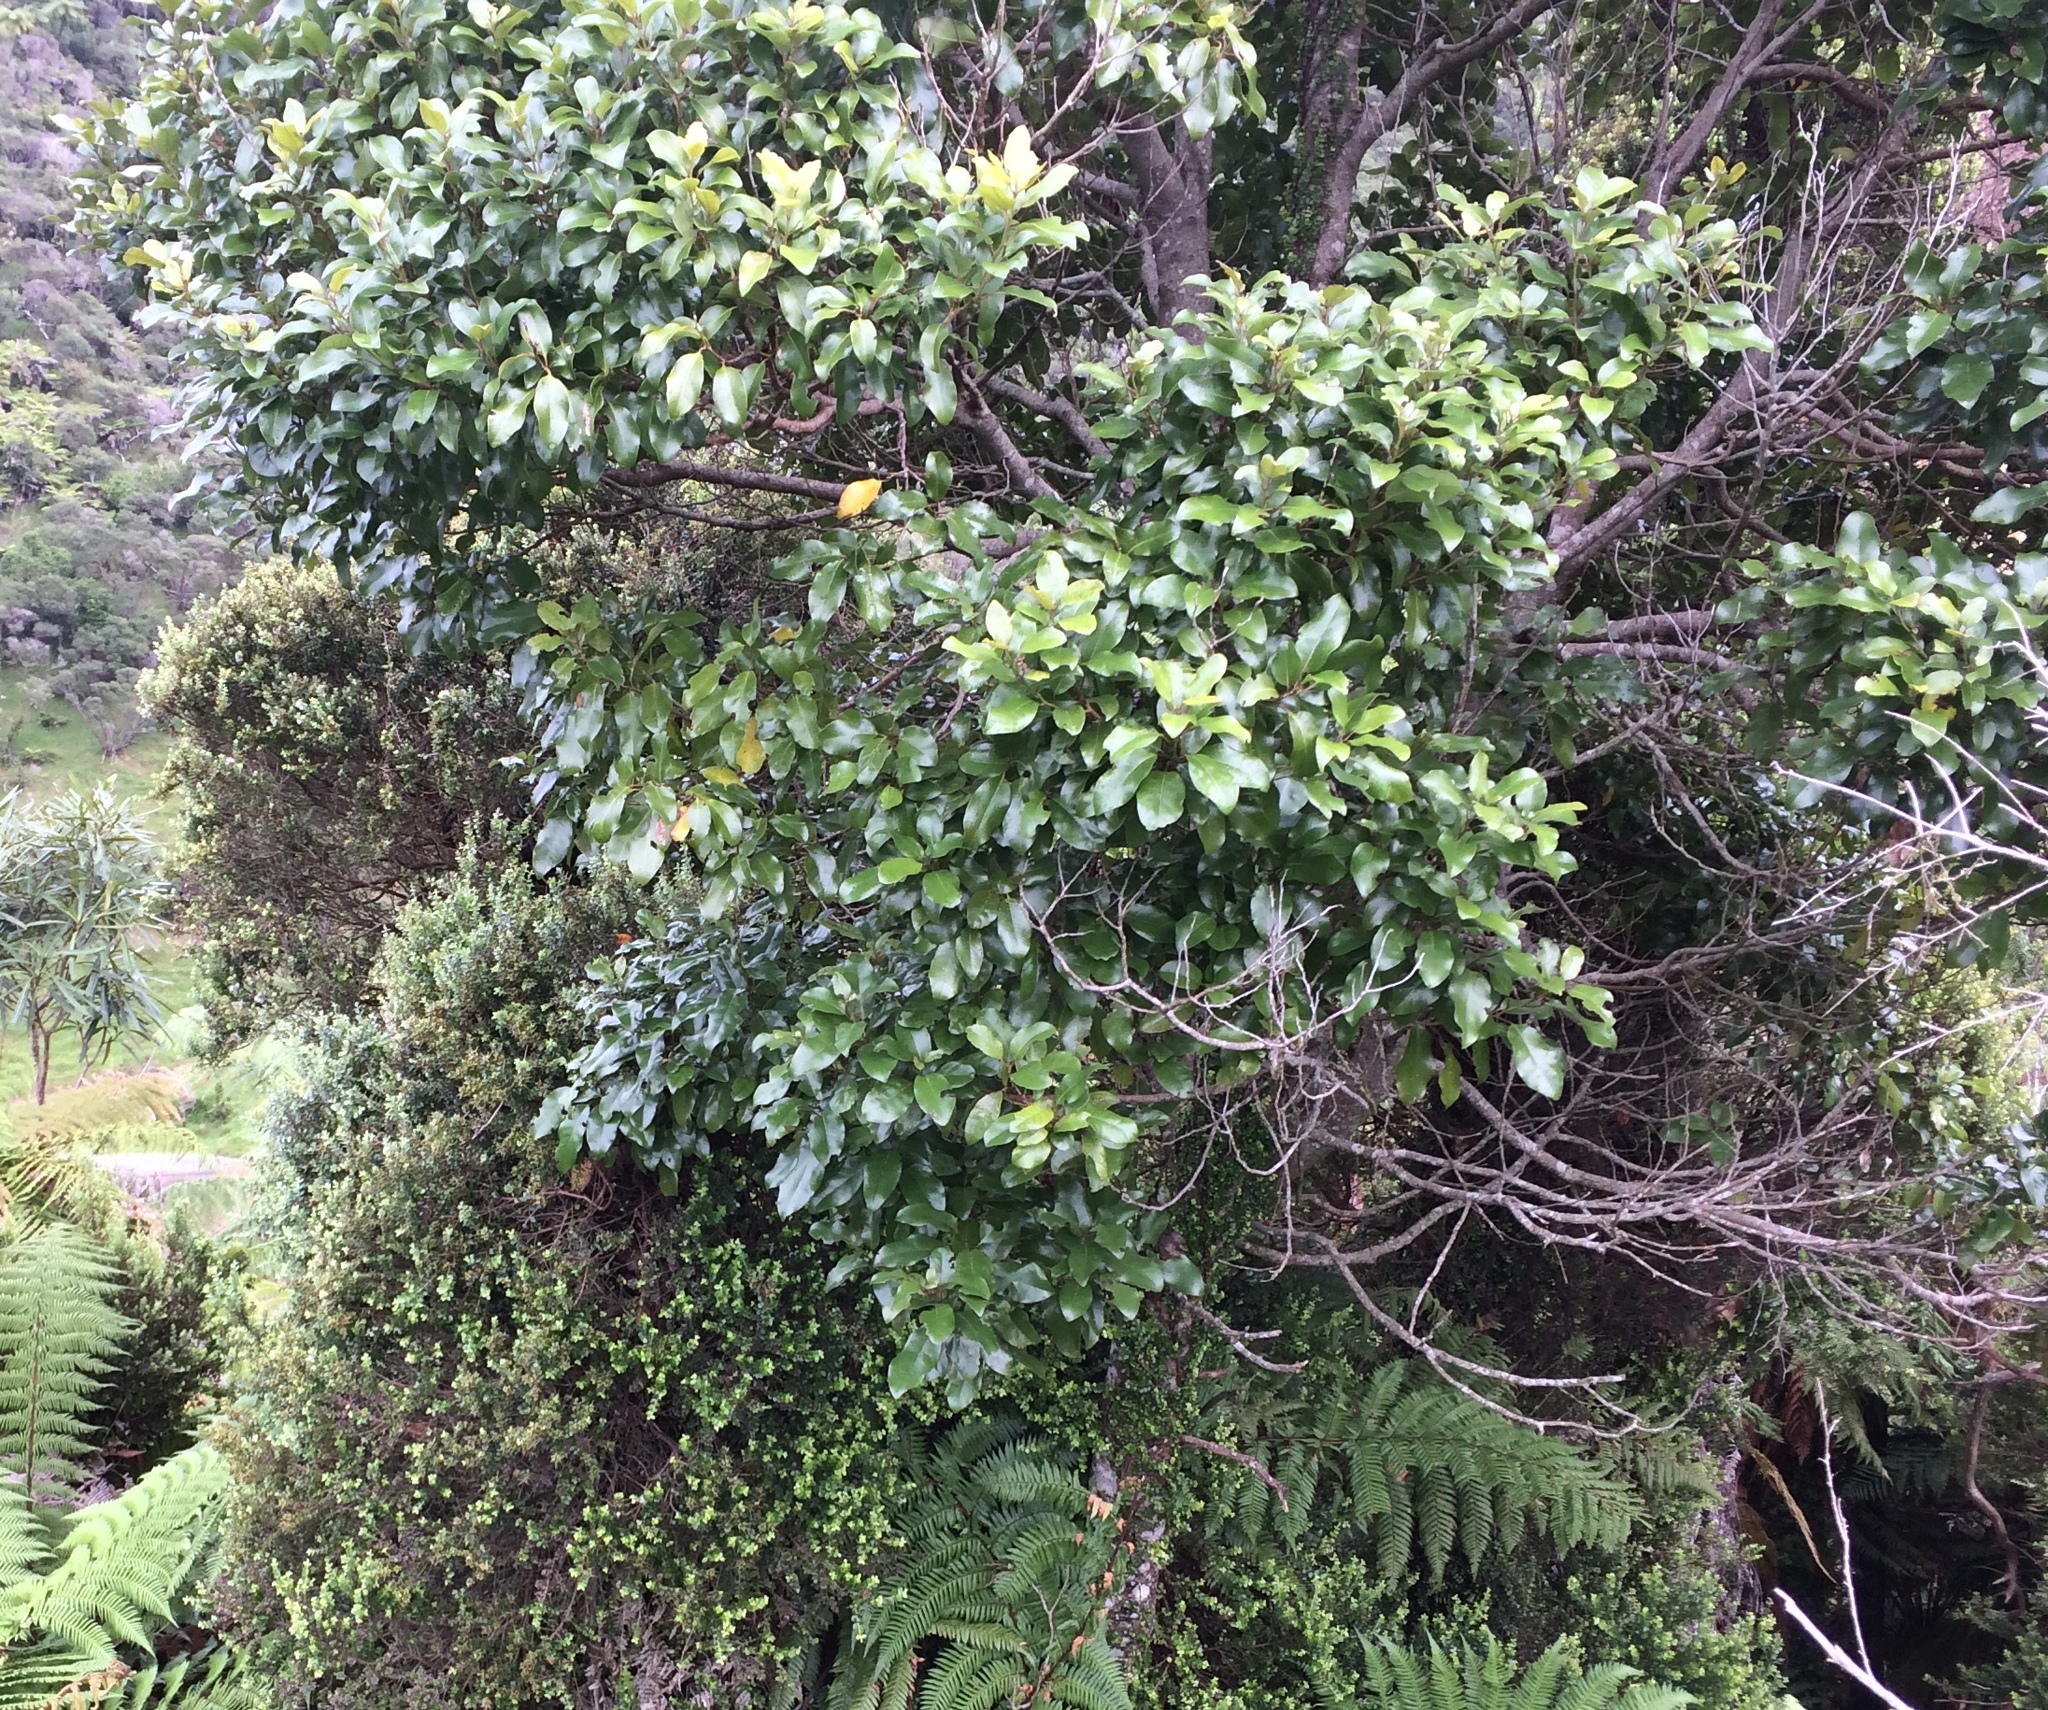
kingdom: Plantae
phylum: Tracheophyta
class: Magnoliopsida
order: Laurales
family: Lauraceae
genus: Litsea
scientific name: Litsea calicaris
